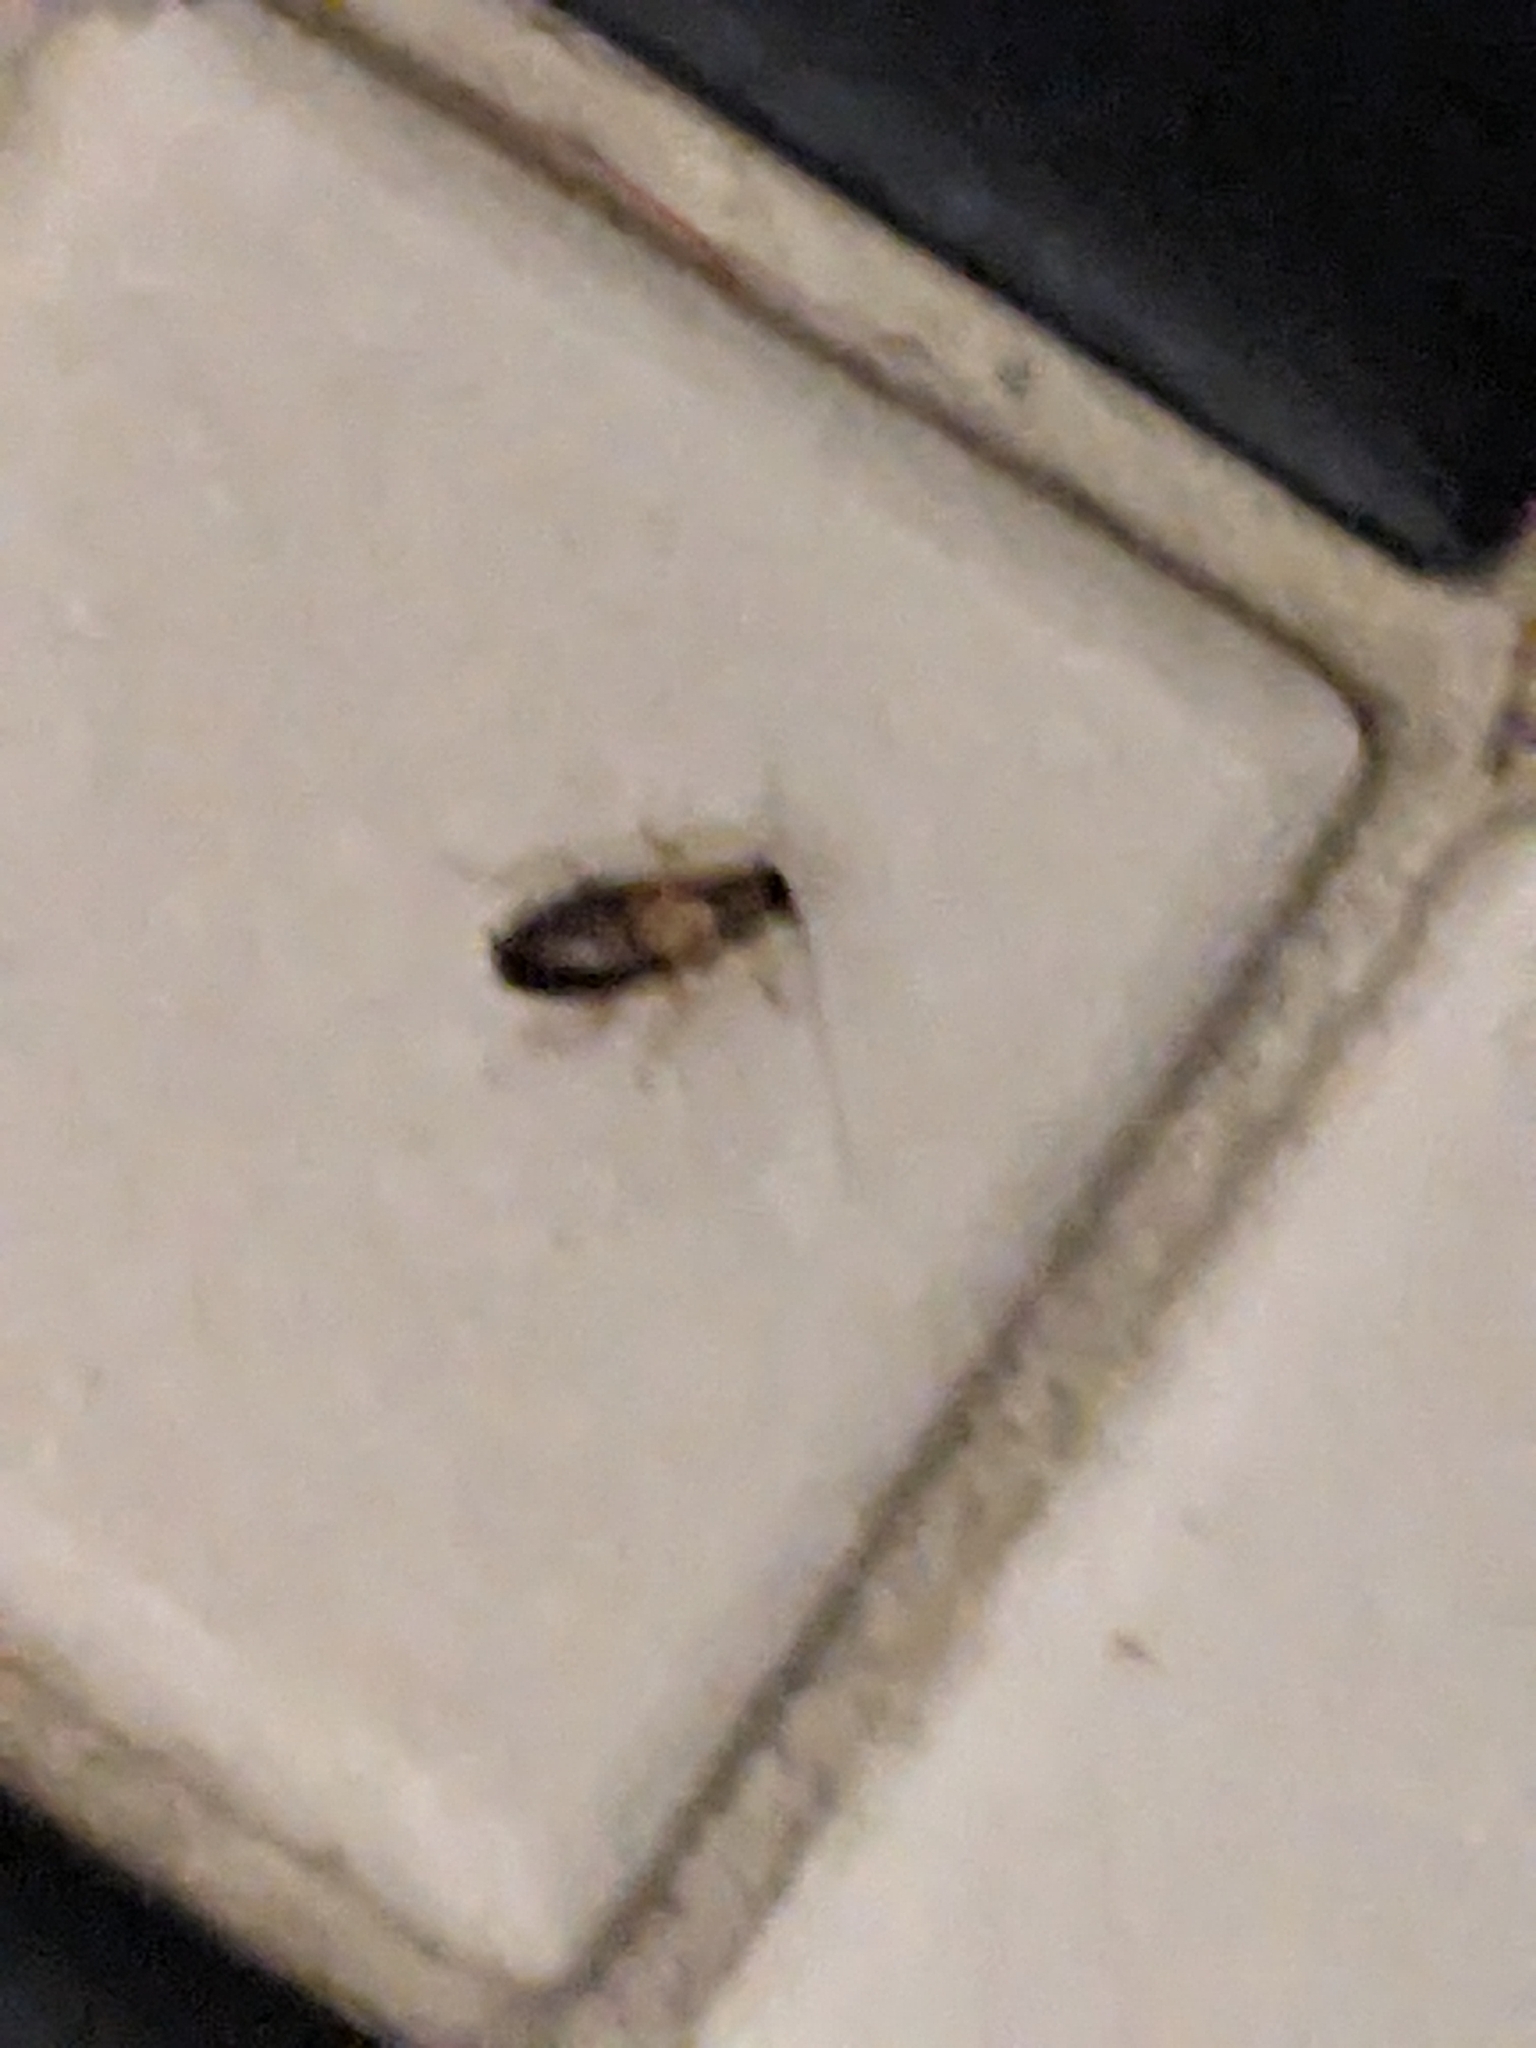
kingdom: Animalia
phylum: Arthropoda
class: Insecta
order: Blattodea
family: Ectobiidae
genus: Blattella
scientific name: Blattella germanica
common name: German cockroach
